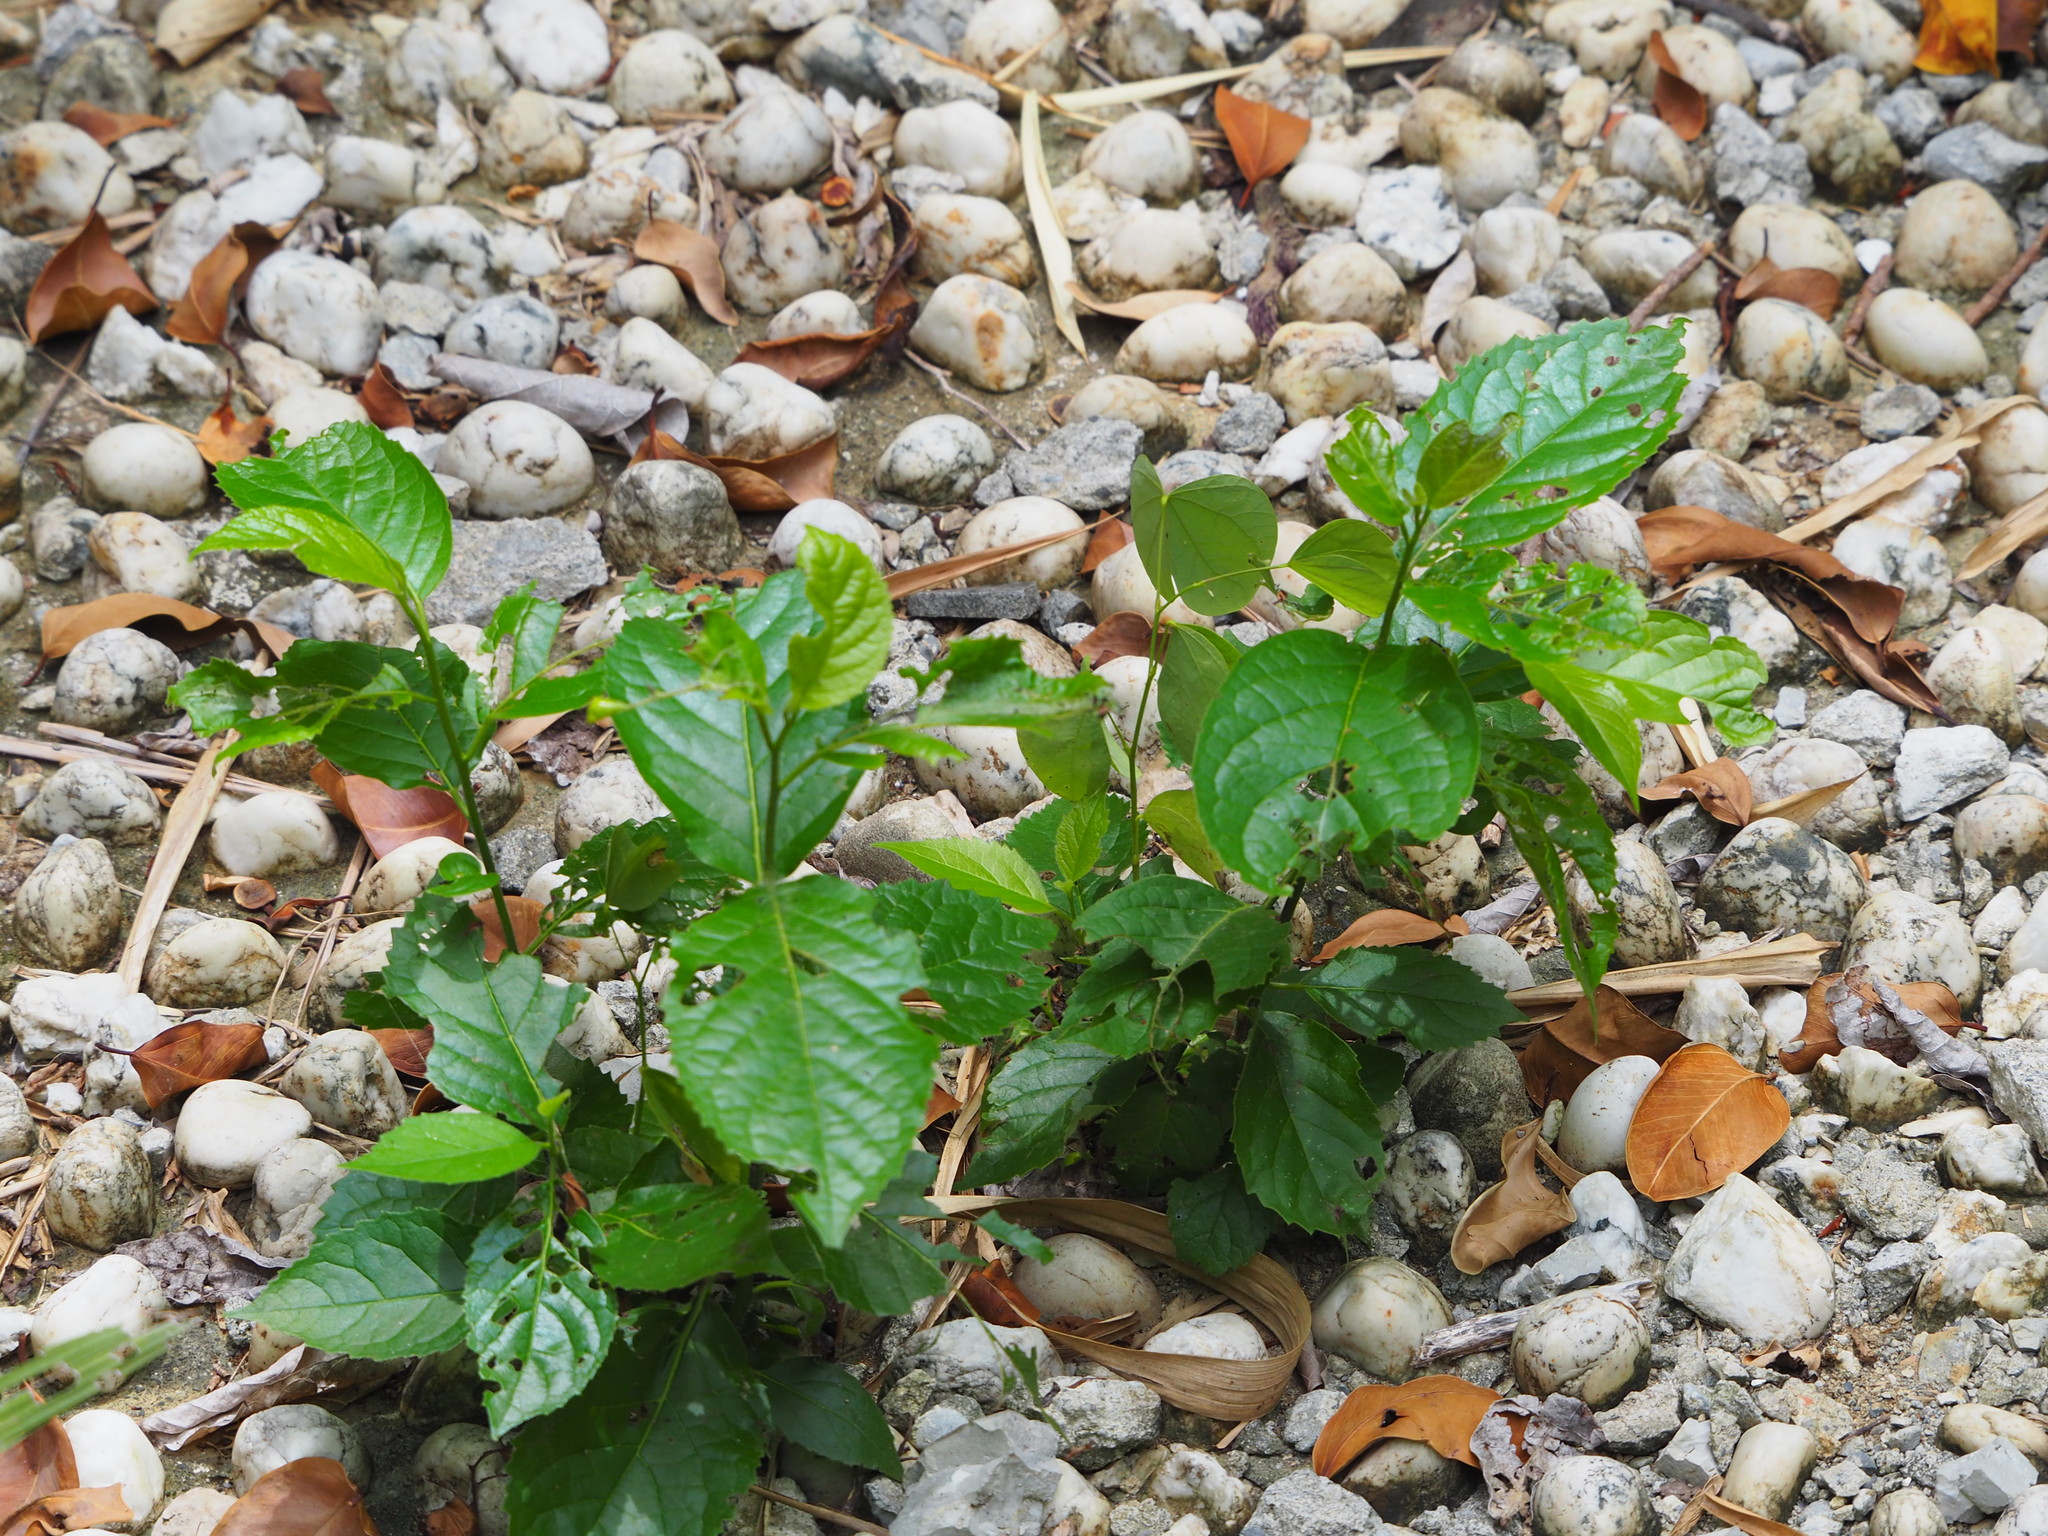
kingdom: Plantae
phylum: Tracheophyta
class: Magnoliopsida
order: Boraginales
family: Ehretiaceae
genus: Ehretia
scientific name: Ehretia resinosa
